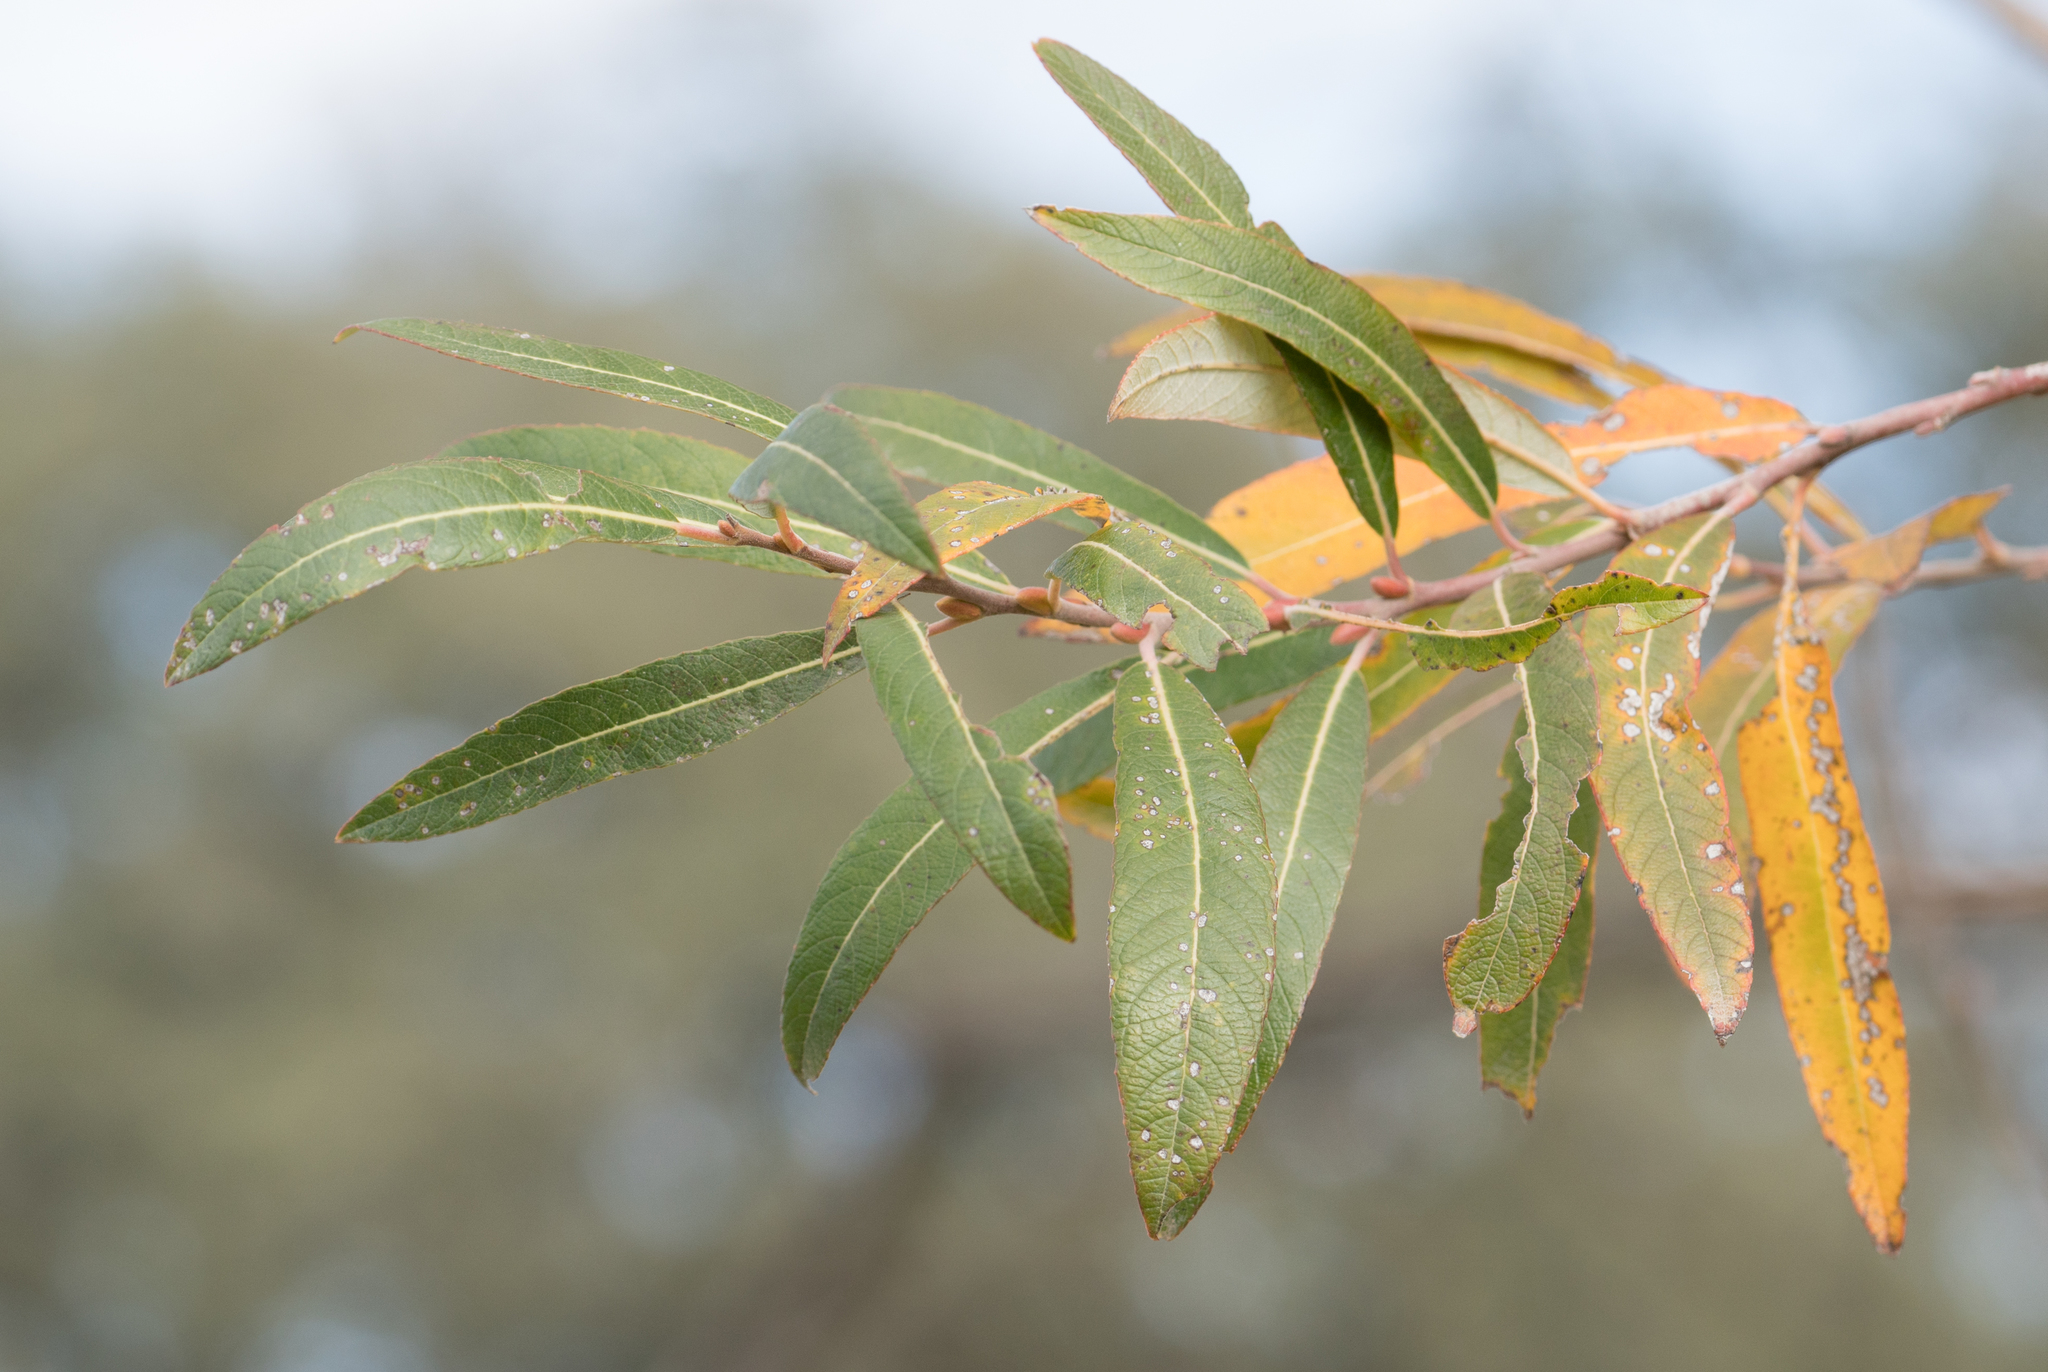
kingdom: Plantae
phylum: Tracheophyta
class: Magnoliopsida
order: Malpighiales
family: Salicaceae
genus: Salix
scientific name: Salix lasiolepis
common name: Arroyo willow
